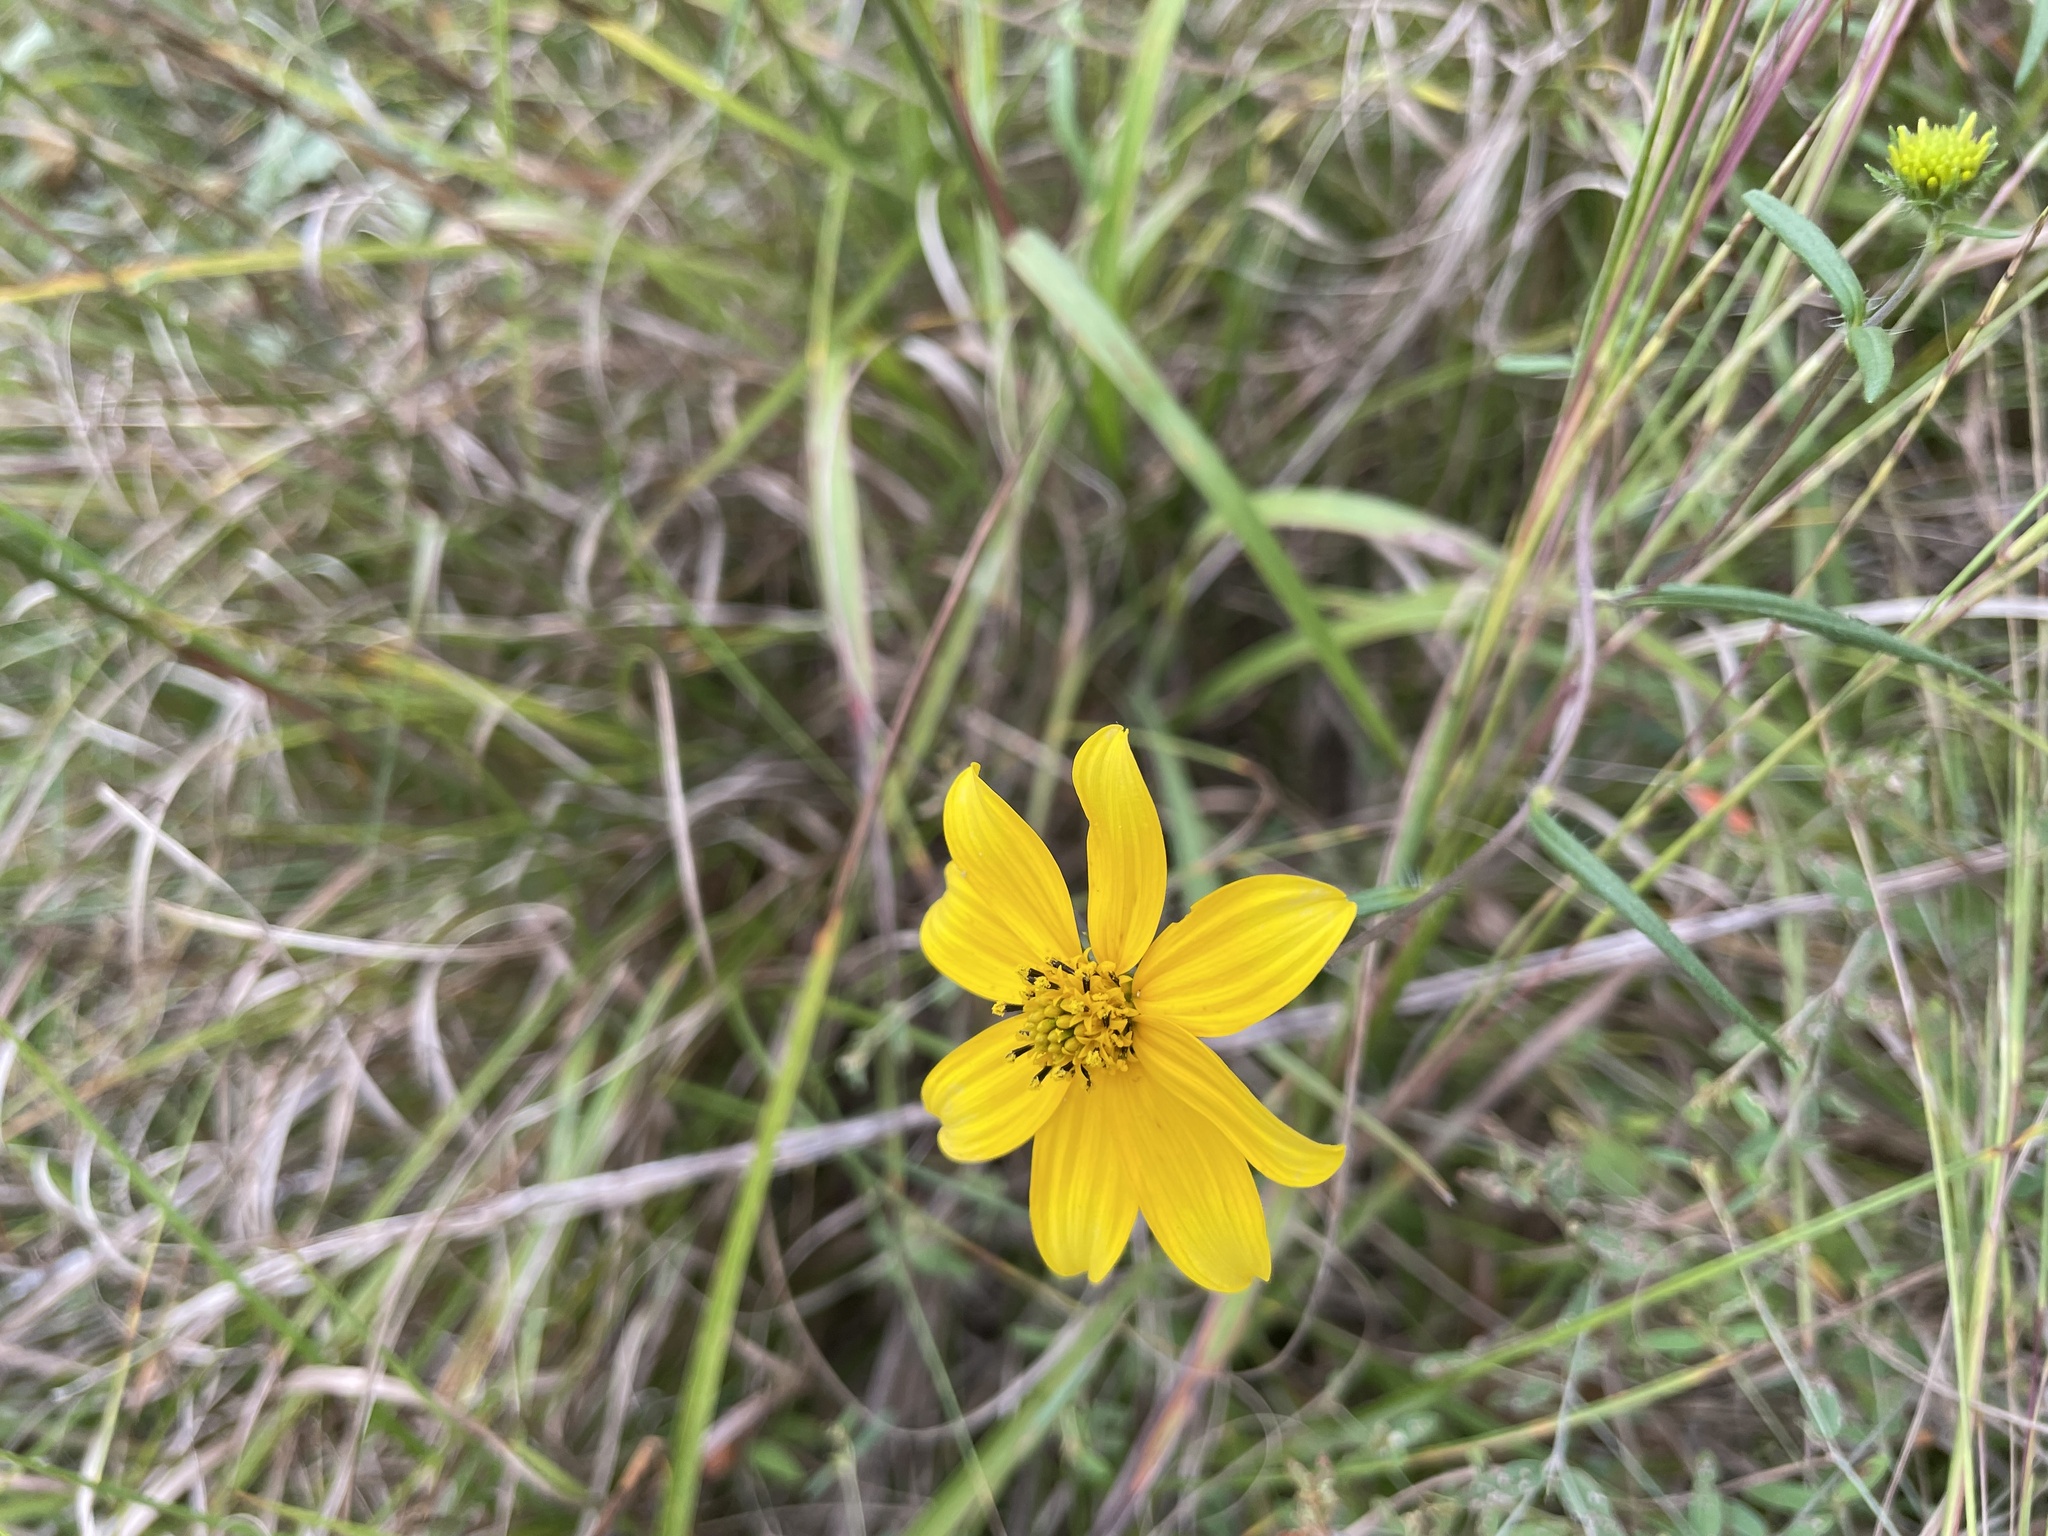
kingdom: Plantae
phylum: Tracheophyta
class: Magnoliopsida
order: Asterales
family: Asteraceae
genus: Helianthus
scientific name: Helianthus porteri
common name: Porter's sunflower
